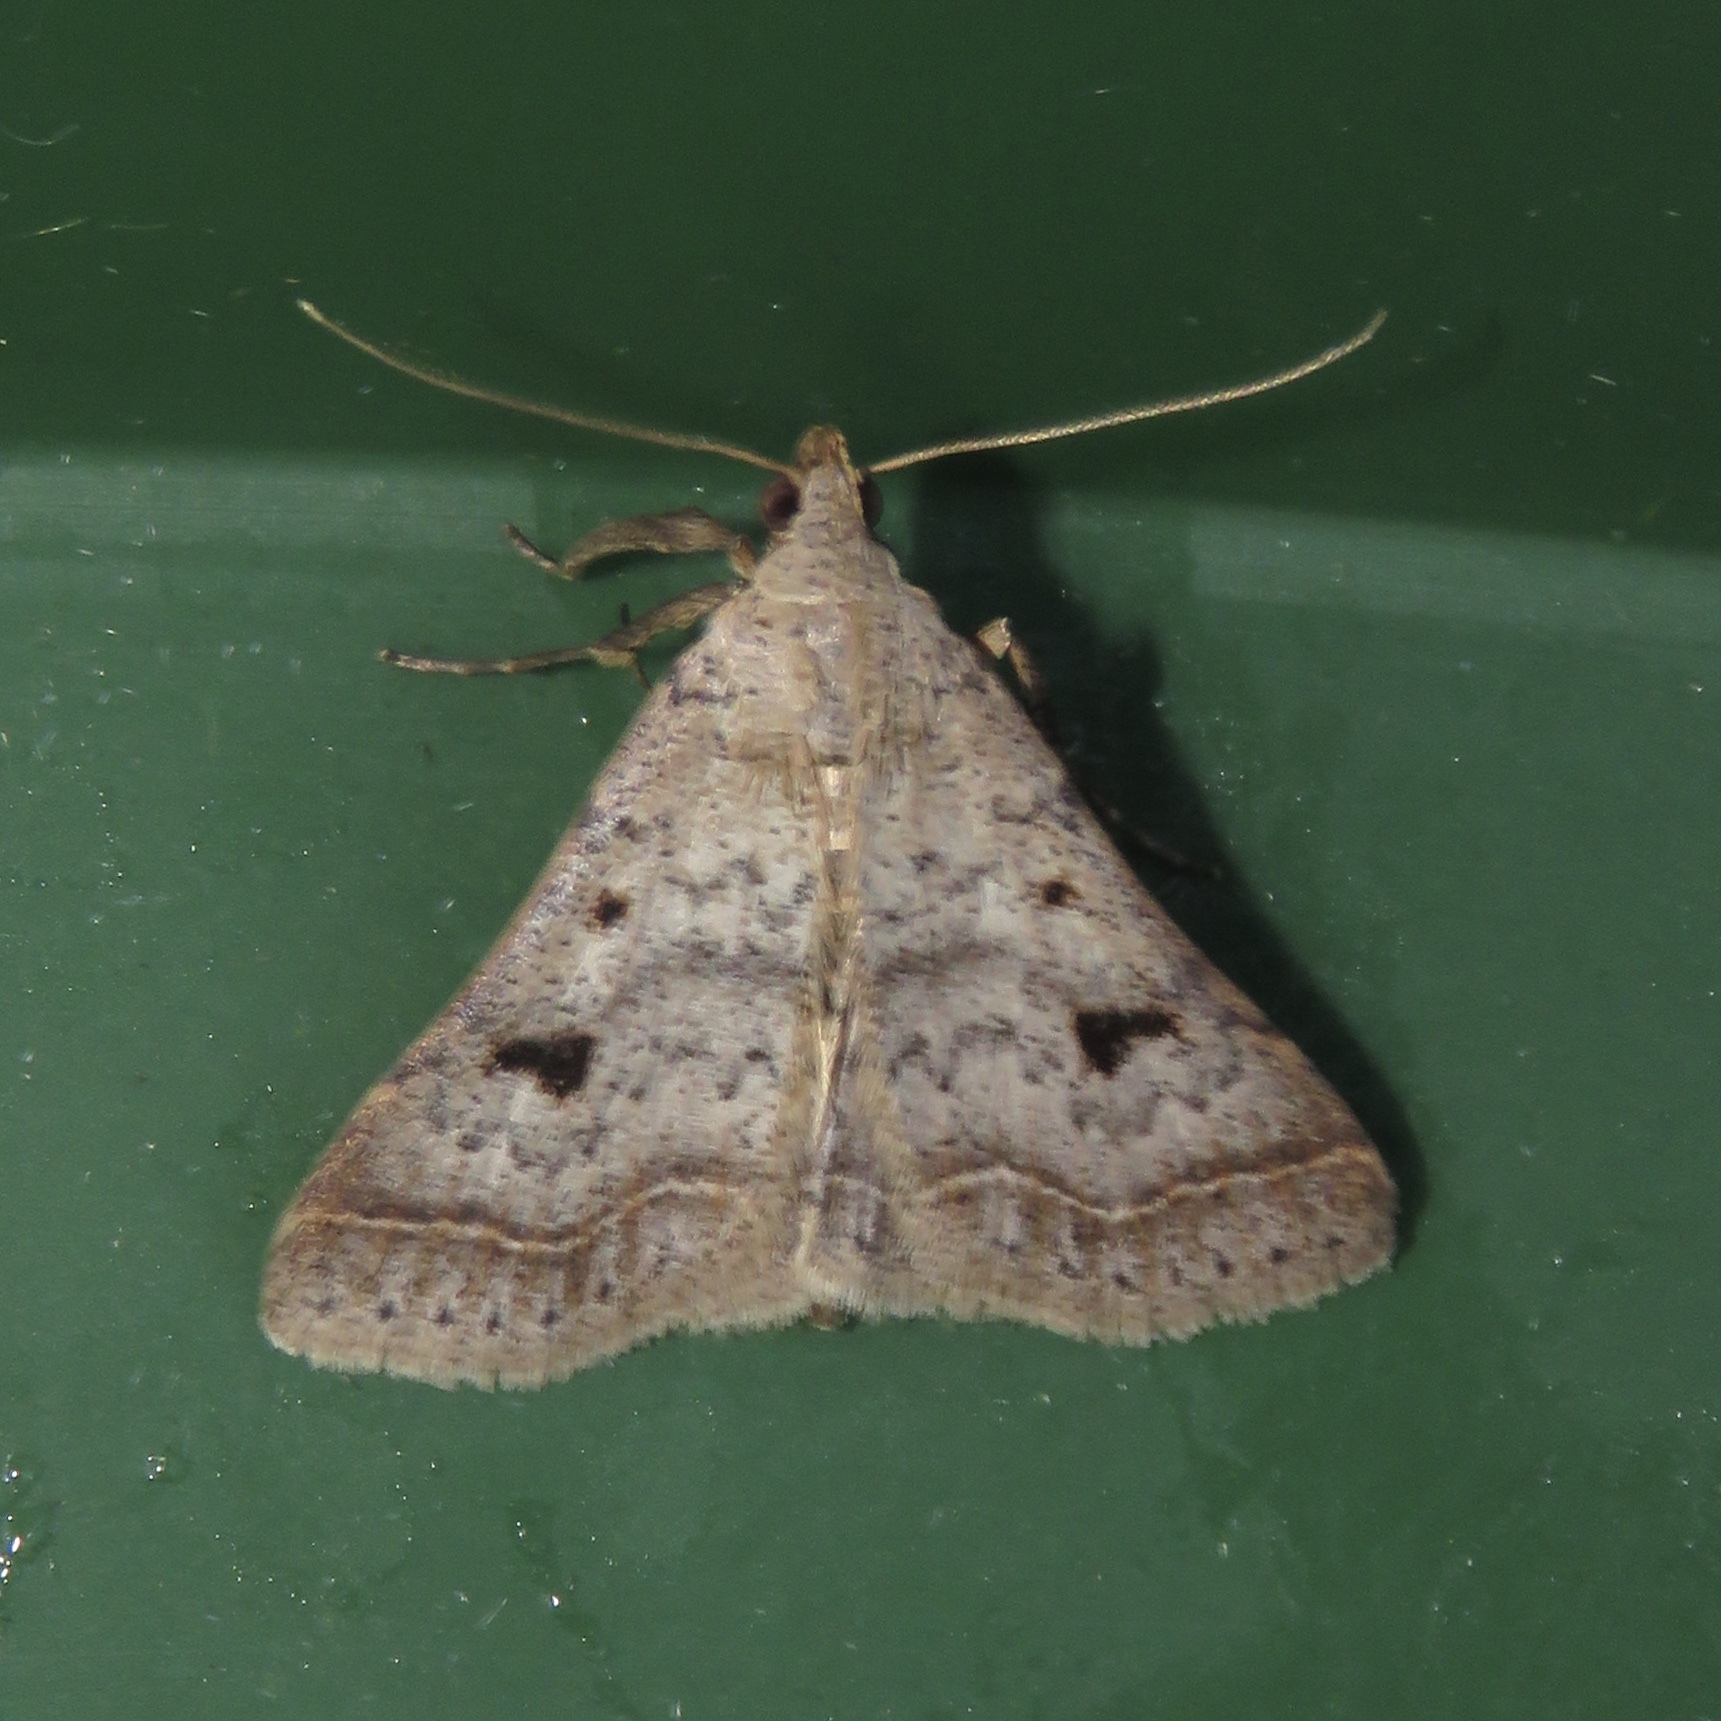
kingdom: Animalia
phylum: Arthropoda
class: Insecta
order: Lepidoptera
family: Erebidae
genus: Bleptina
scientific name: Bleptina caradrinalis
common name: Bent-winged owlet
